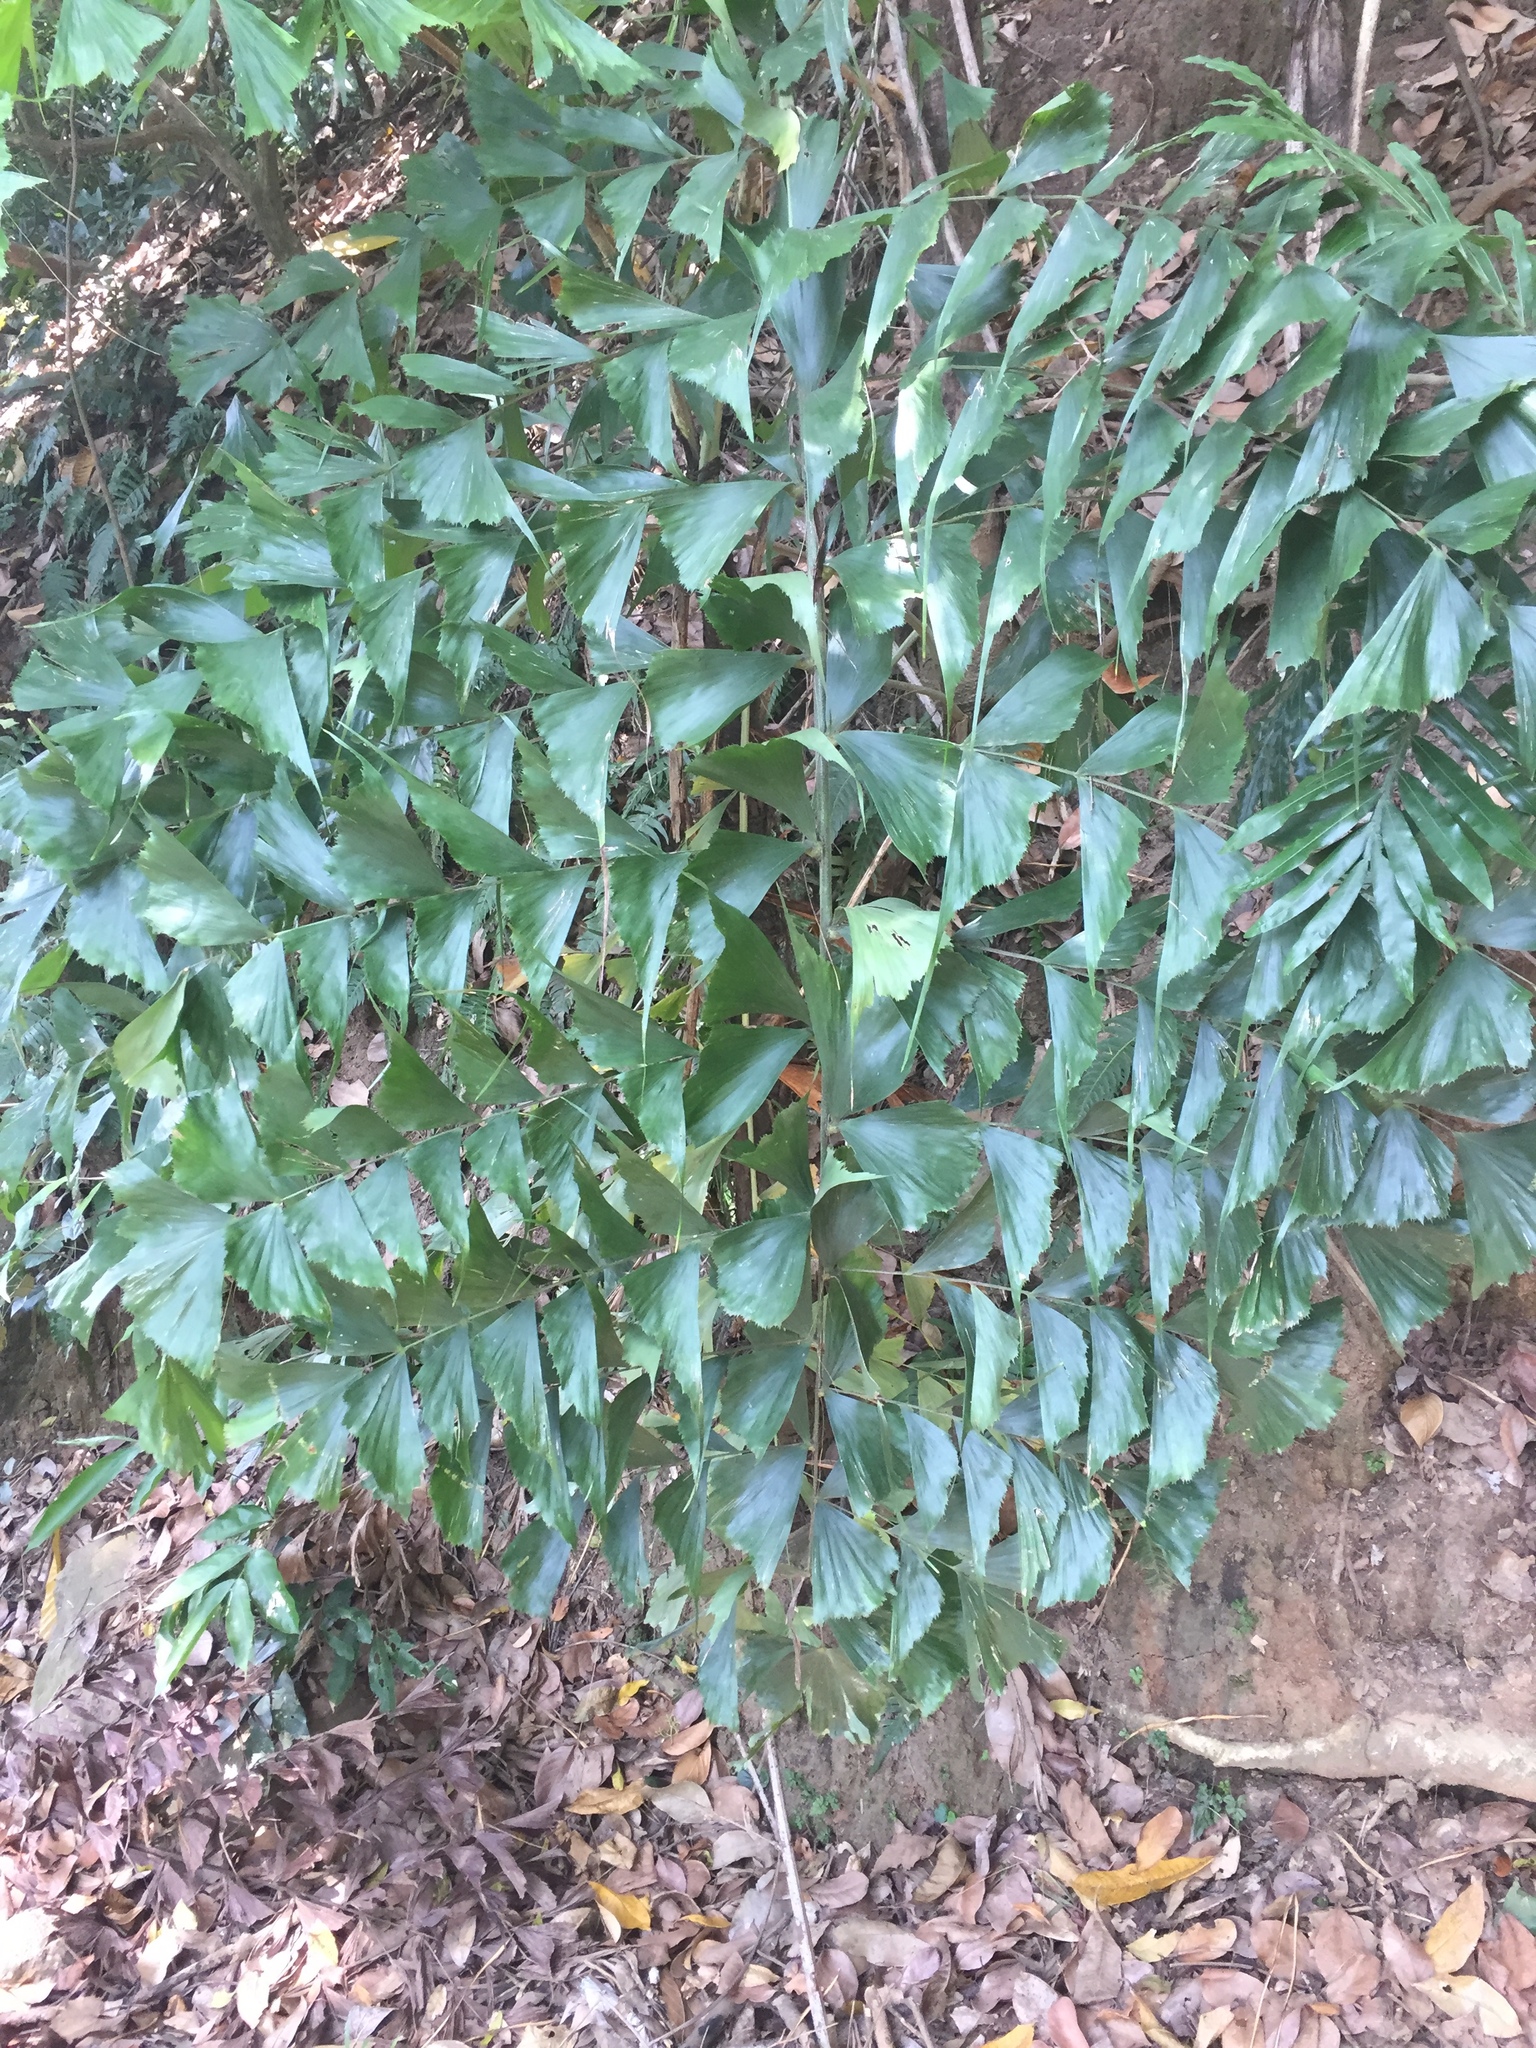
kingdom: Plantae
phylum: Tracheophyta
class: Liliopsida
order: Arecales
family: Arecaceae
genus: Caryota
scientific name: Caryota urens
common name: Jaggery palm
